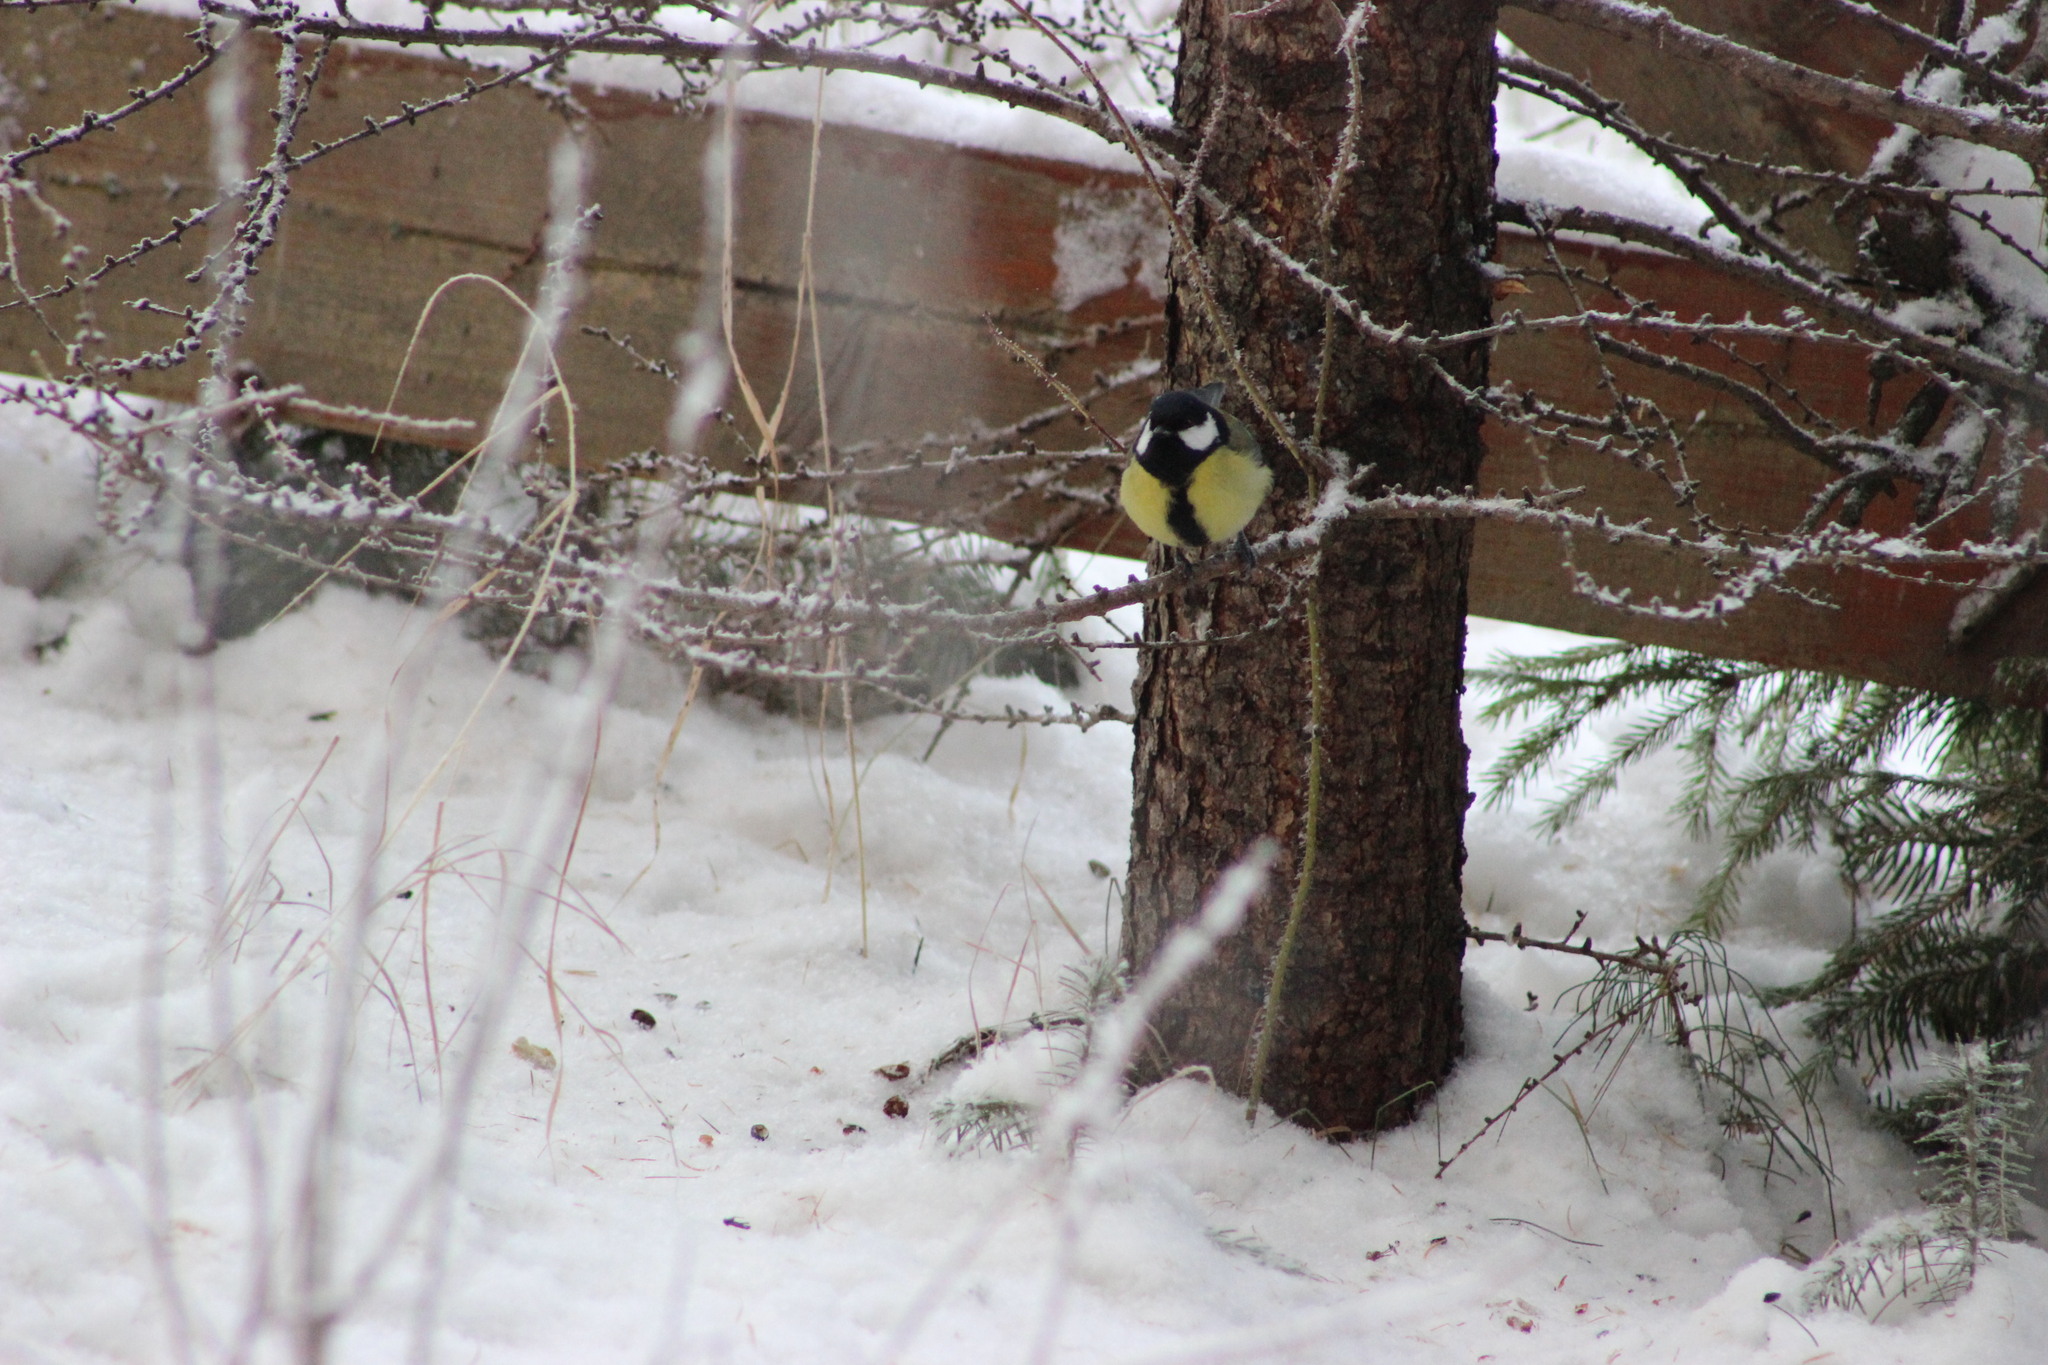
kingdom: Animalia
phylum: Chordata
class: Aves
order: Passeriformes
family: Paridae
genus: Parus
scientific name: Parus major
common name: Great tit
